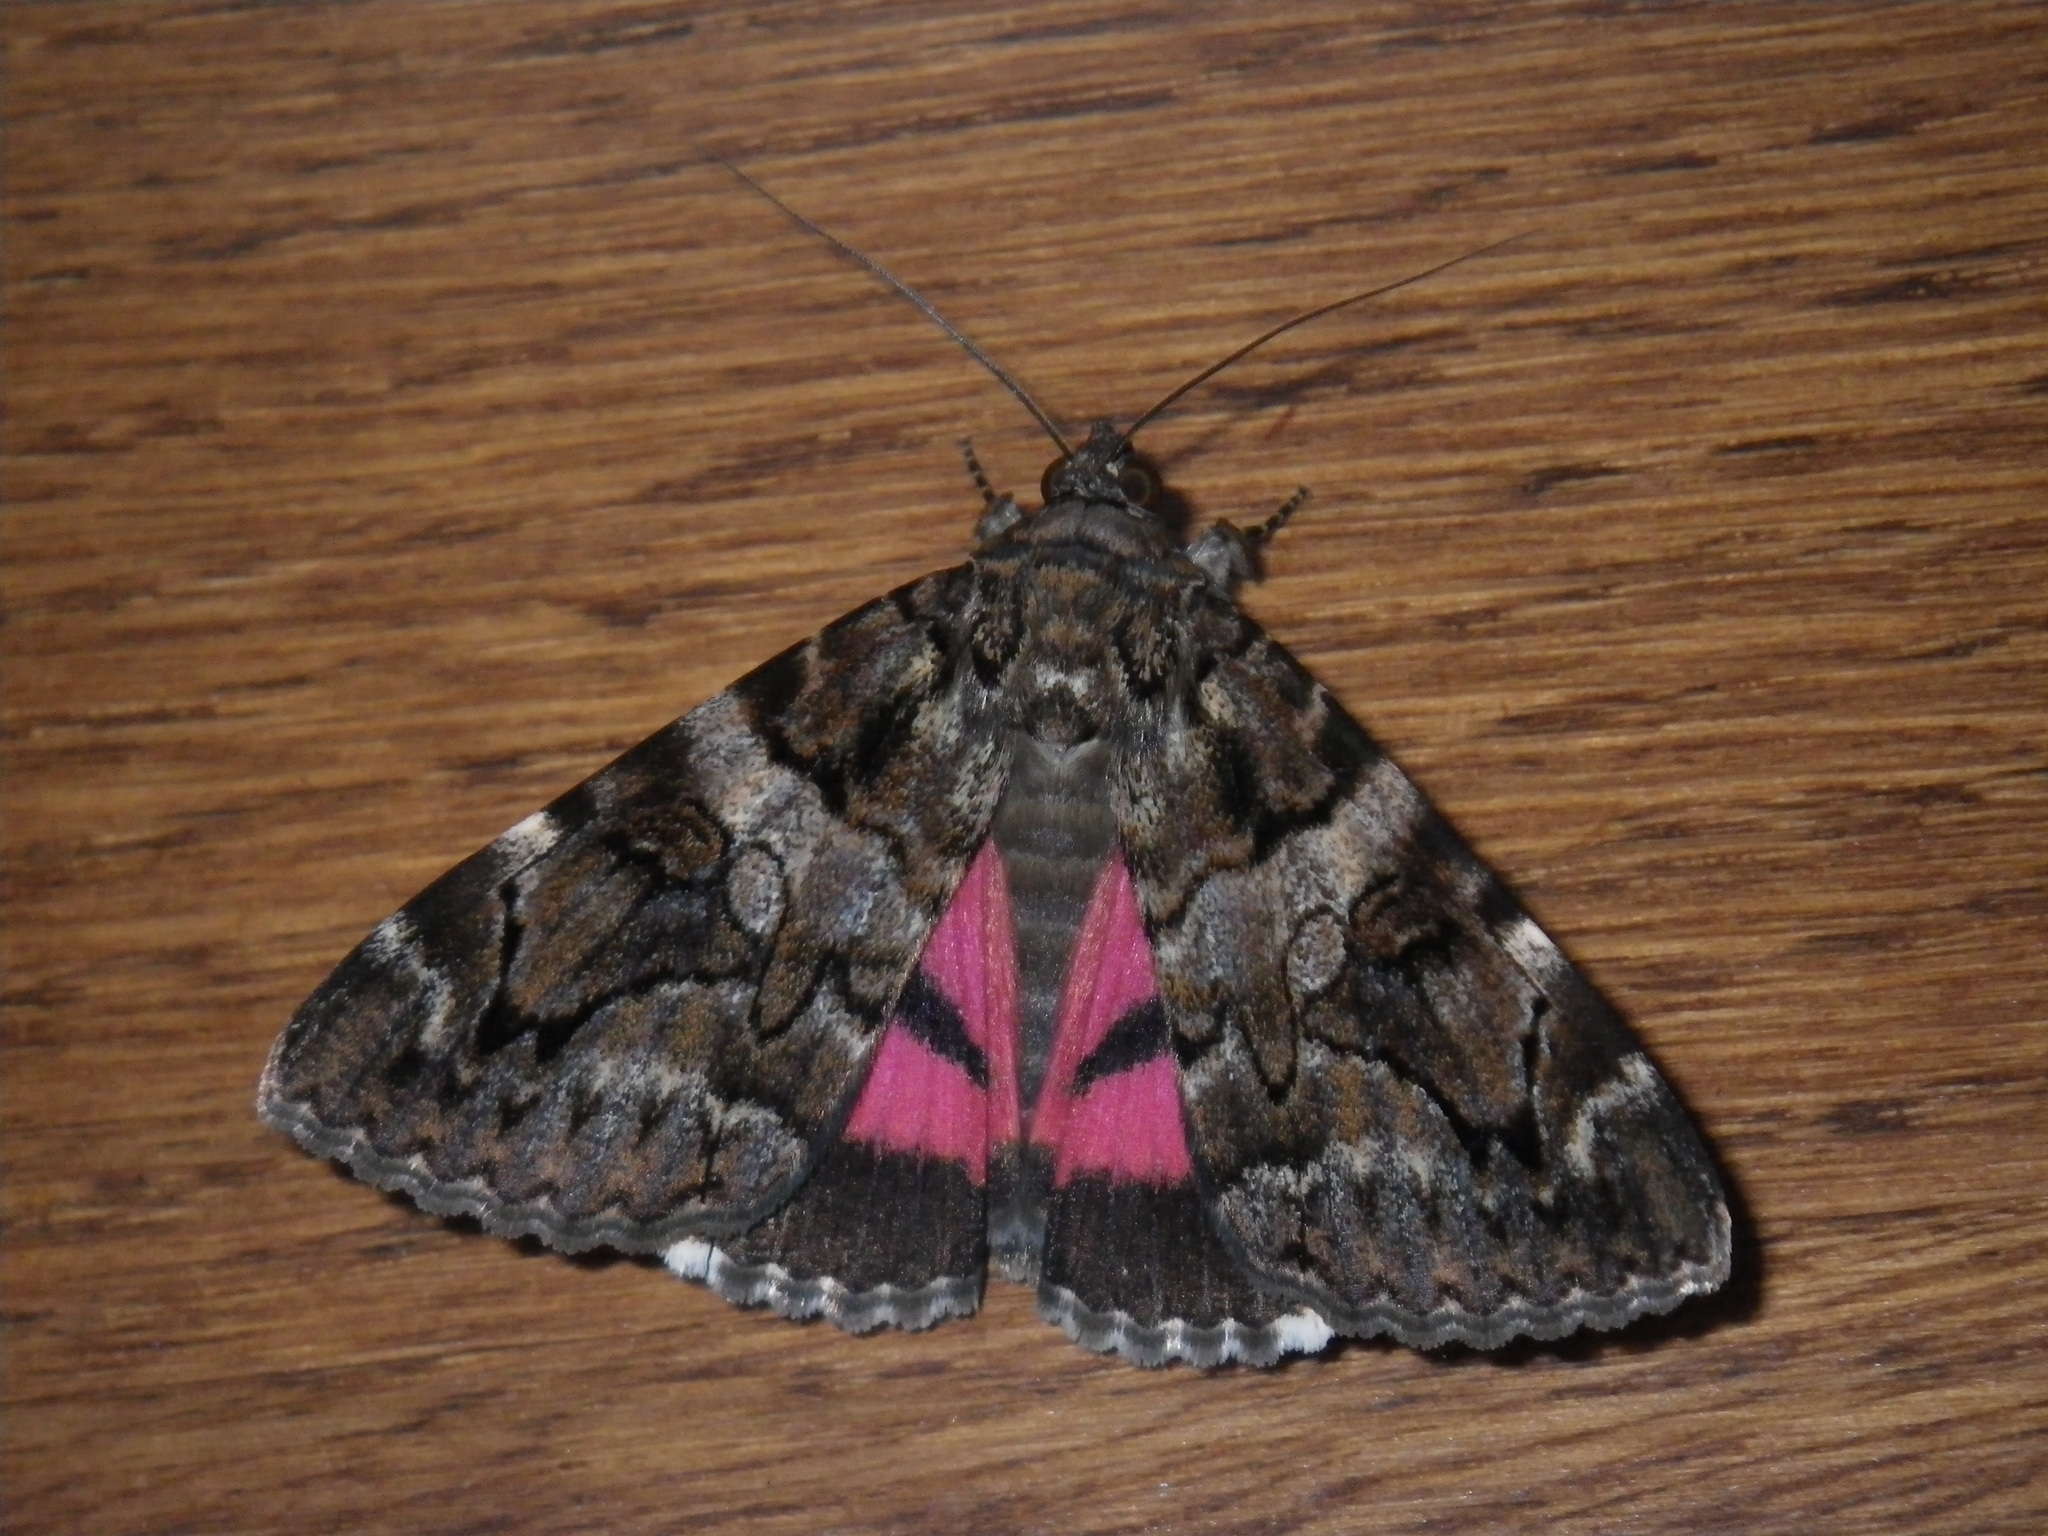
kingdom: Animalia
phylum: Arthropoda
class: Insecta
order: Lepidoptera
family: Erebidae
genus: Catocala
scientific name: Catocala coniuncta
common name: Minsmere crimson underwing
